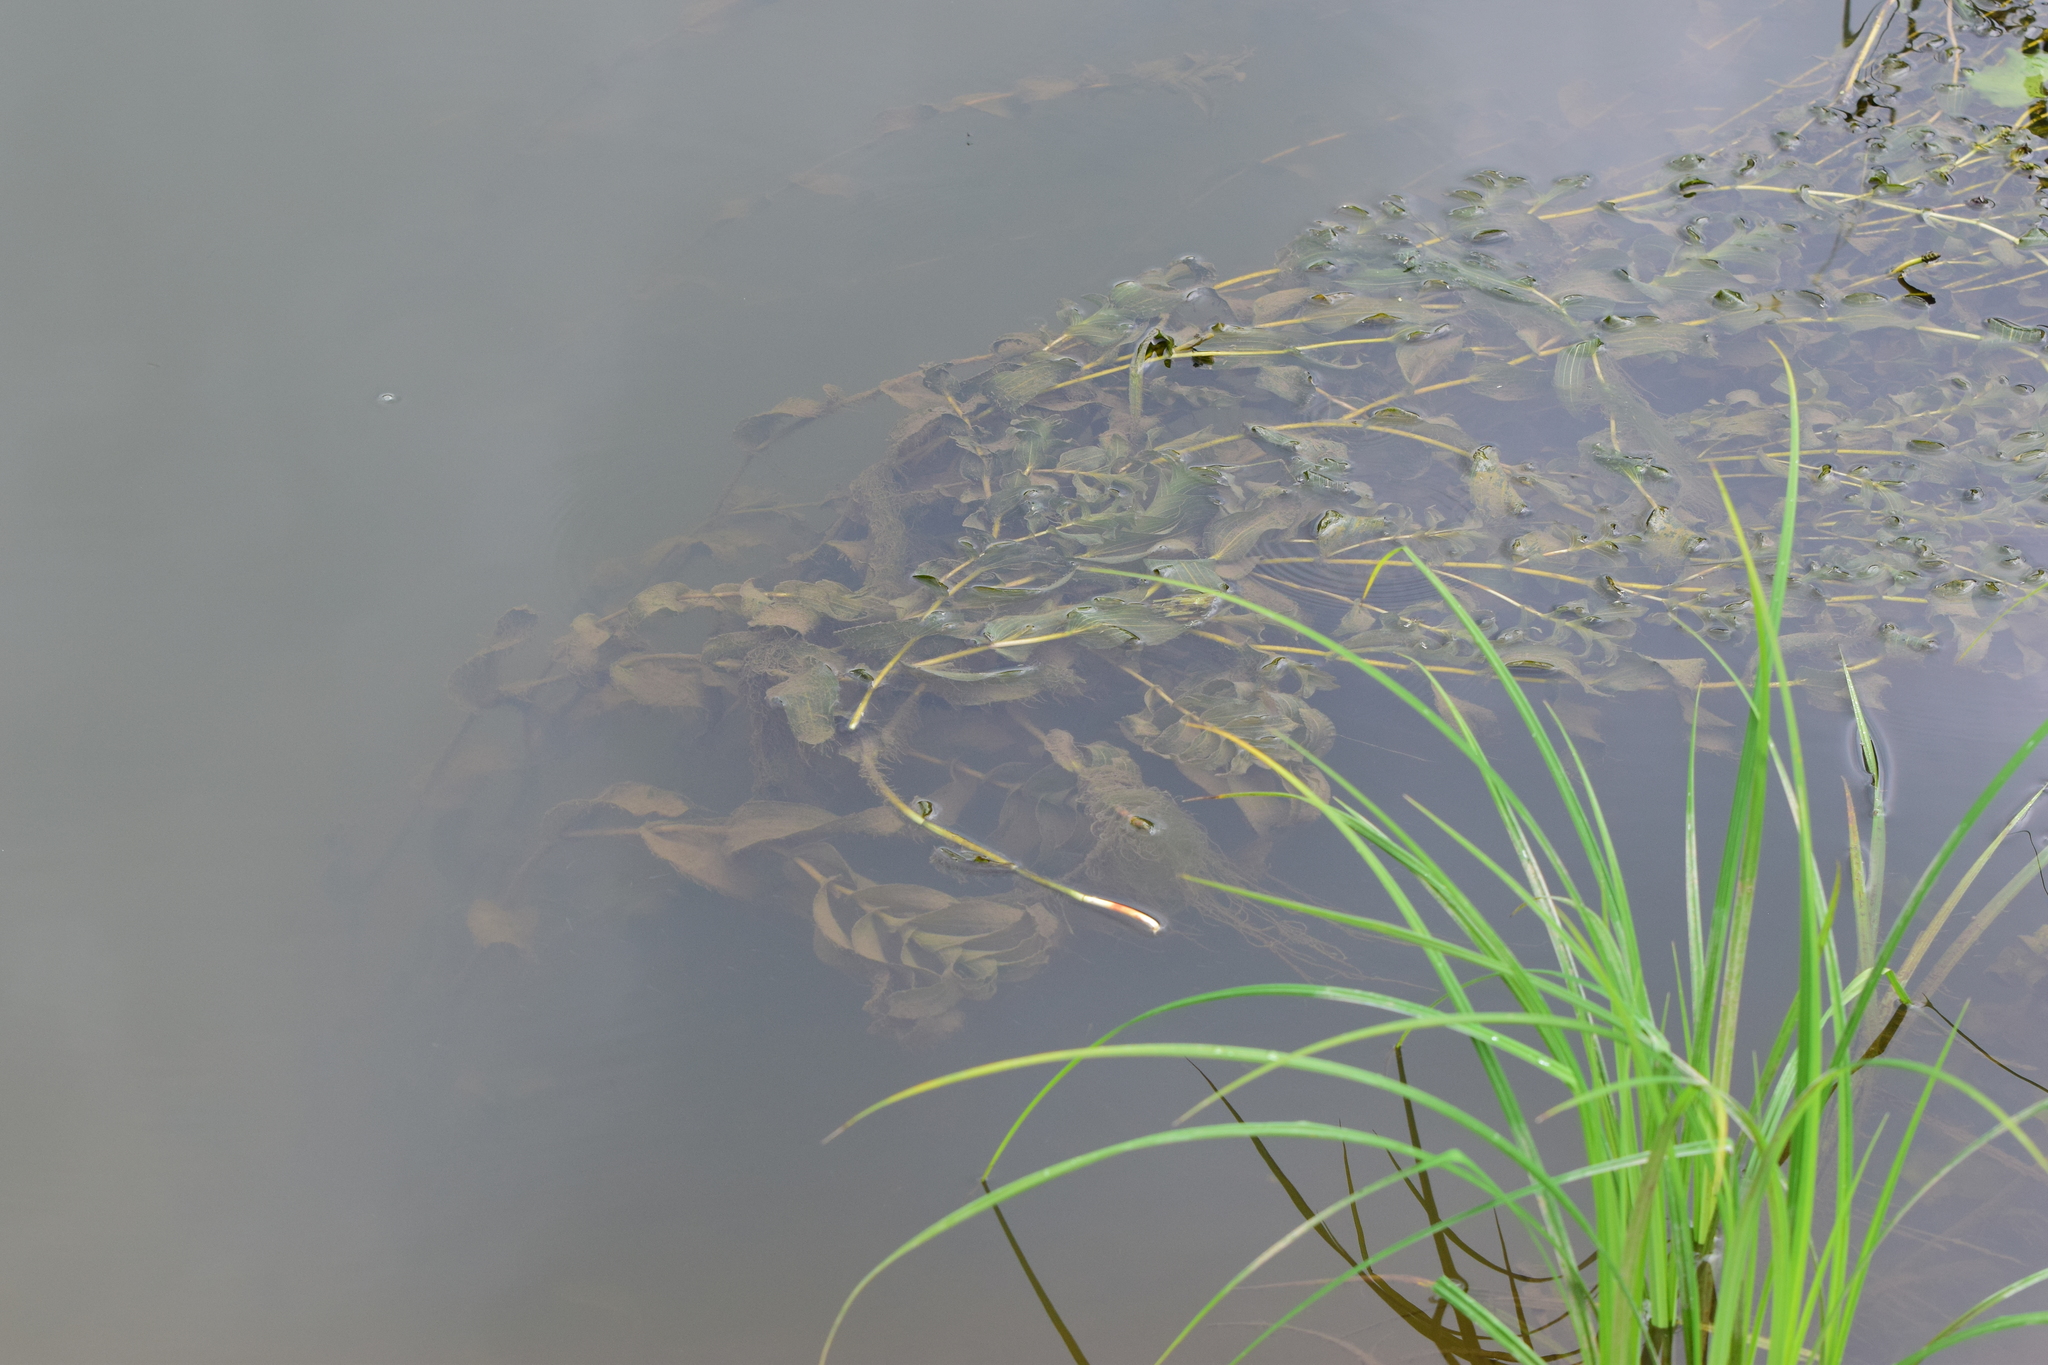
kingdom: Plantae
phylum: Tracheophyta
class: Liliopsida
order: Alismatales
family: Potamogetonaceae
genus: Potamogeton
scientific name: Potamogeton perfoliatus
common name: Perfoliate pondweed
